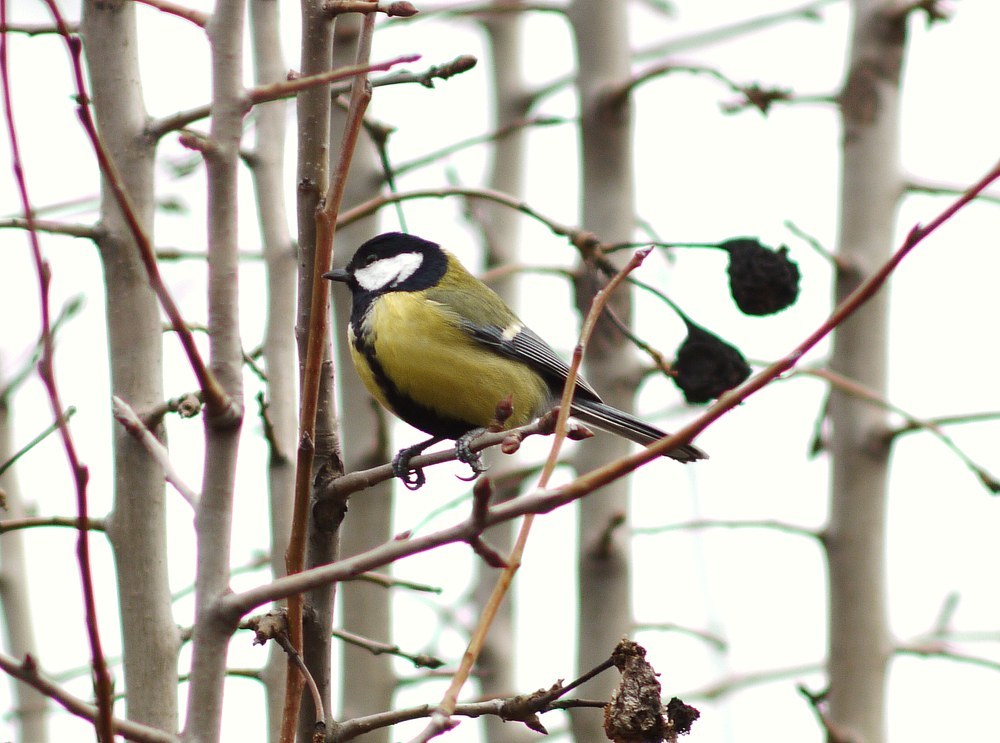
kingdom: Animalia
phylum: Chordata
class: Aves
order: Passeriformes
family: Paridae
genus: Parus
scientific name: Parus major
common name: Great tit
